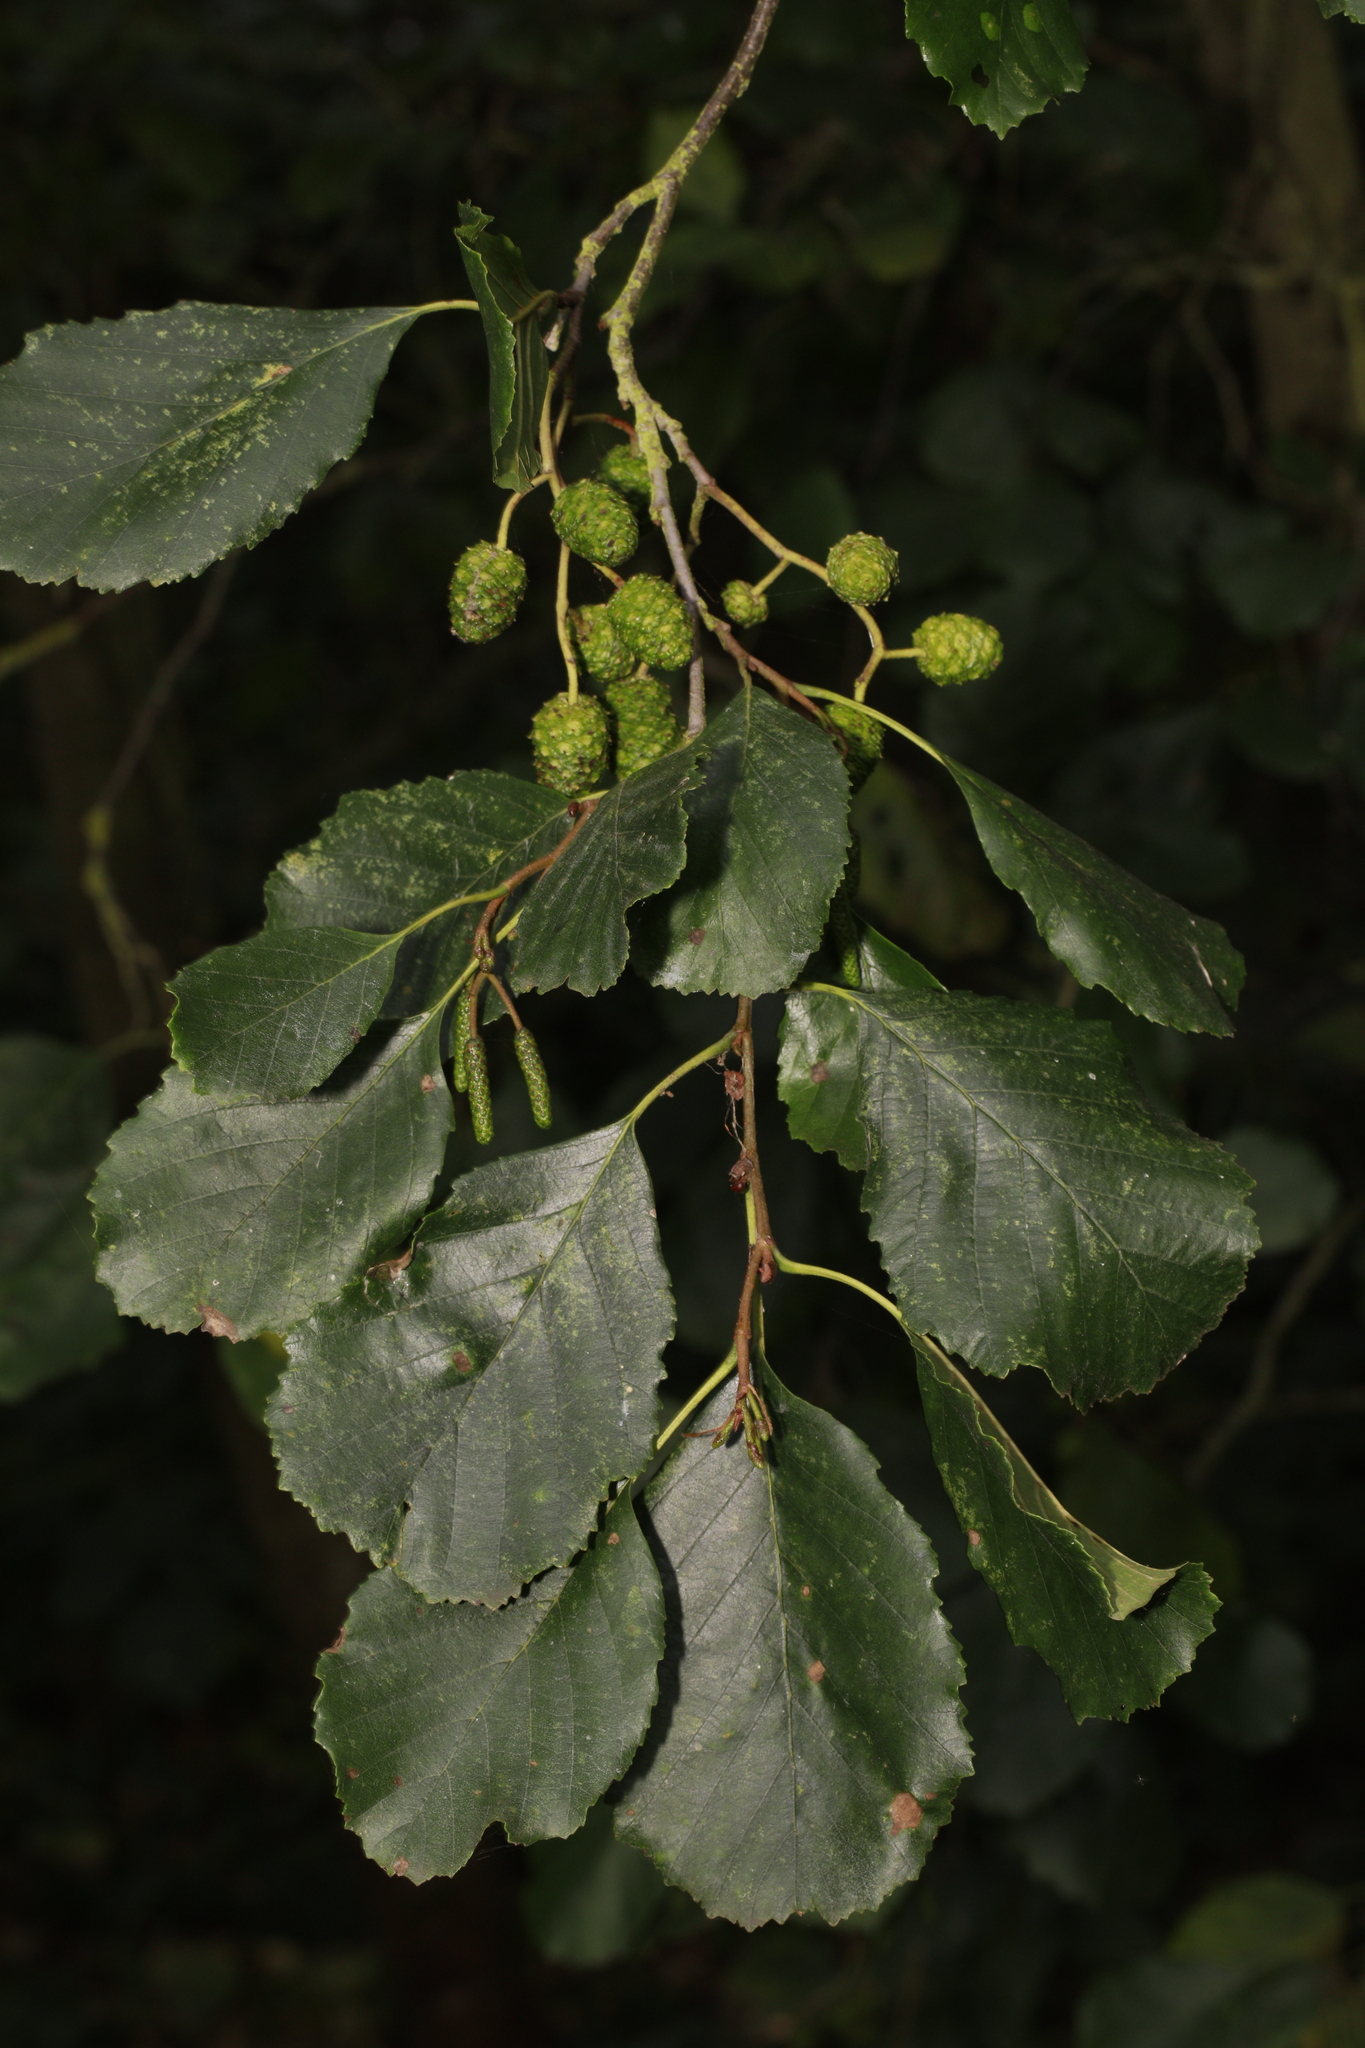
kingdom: Plantae
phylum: Tracheophyta
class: Magnoliopsida
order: Fagales
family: Betulaceae
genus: Alnus
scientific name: Alnus glutinosa
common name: Black alder
